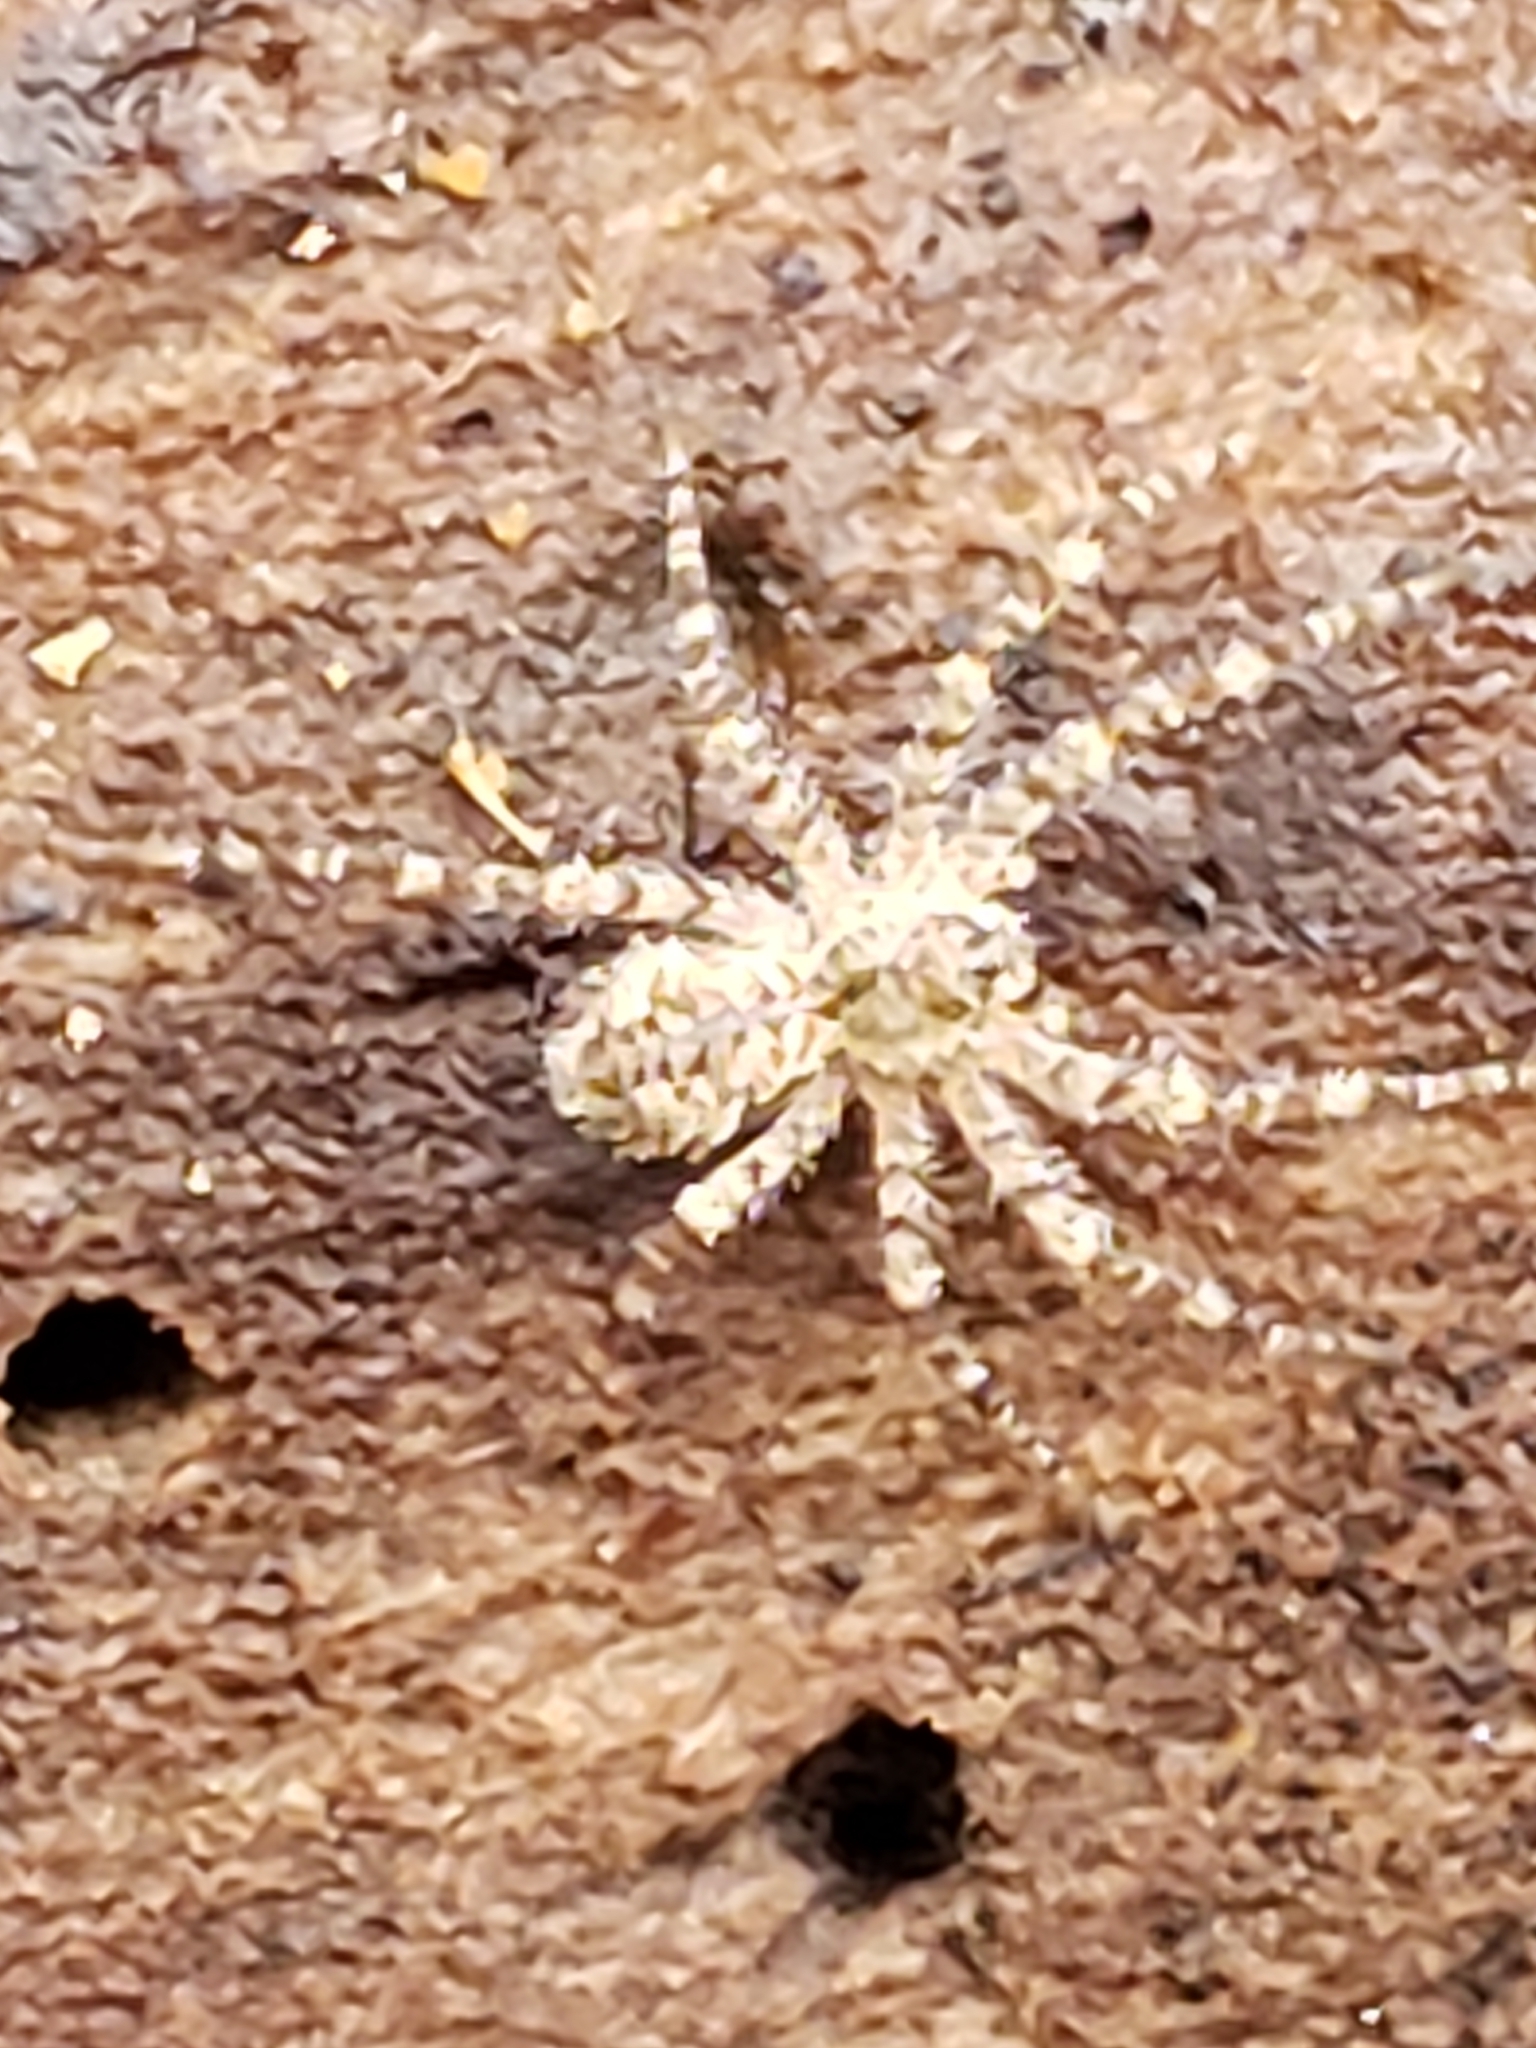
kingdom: Animalia
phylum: Arthropoda
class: Arachnida
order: Araneae
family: Pisauridae
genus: Dolomedes
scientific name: Dolomedes albineus
